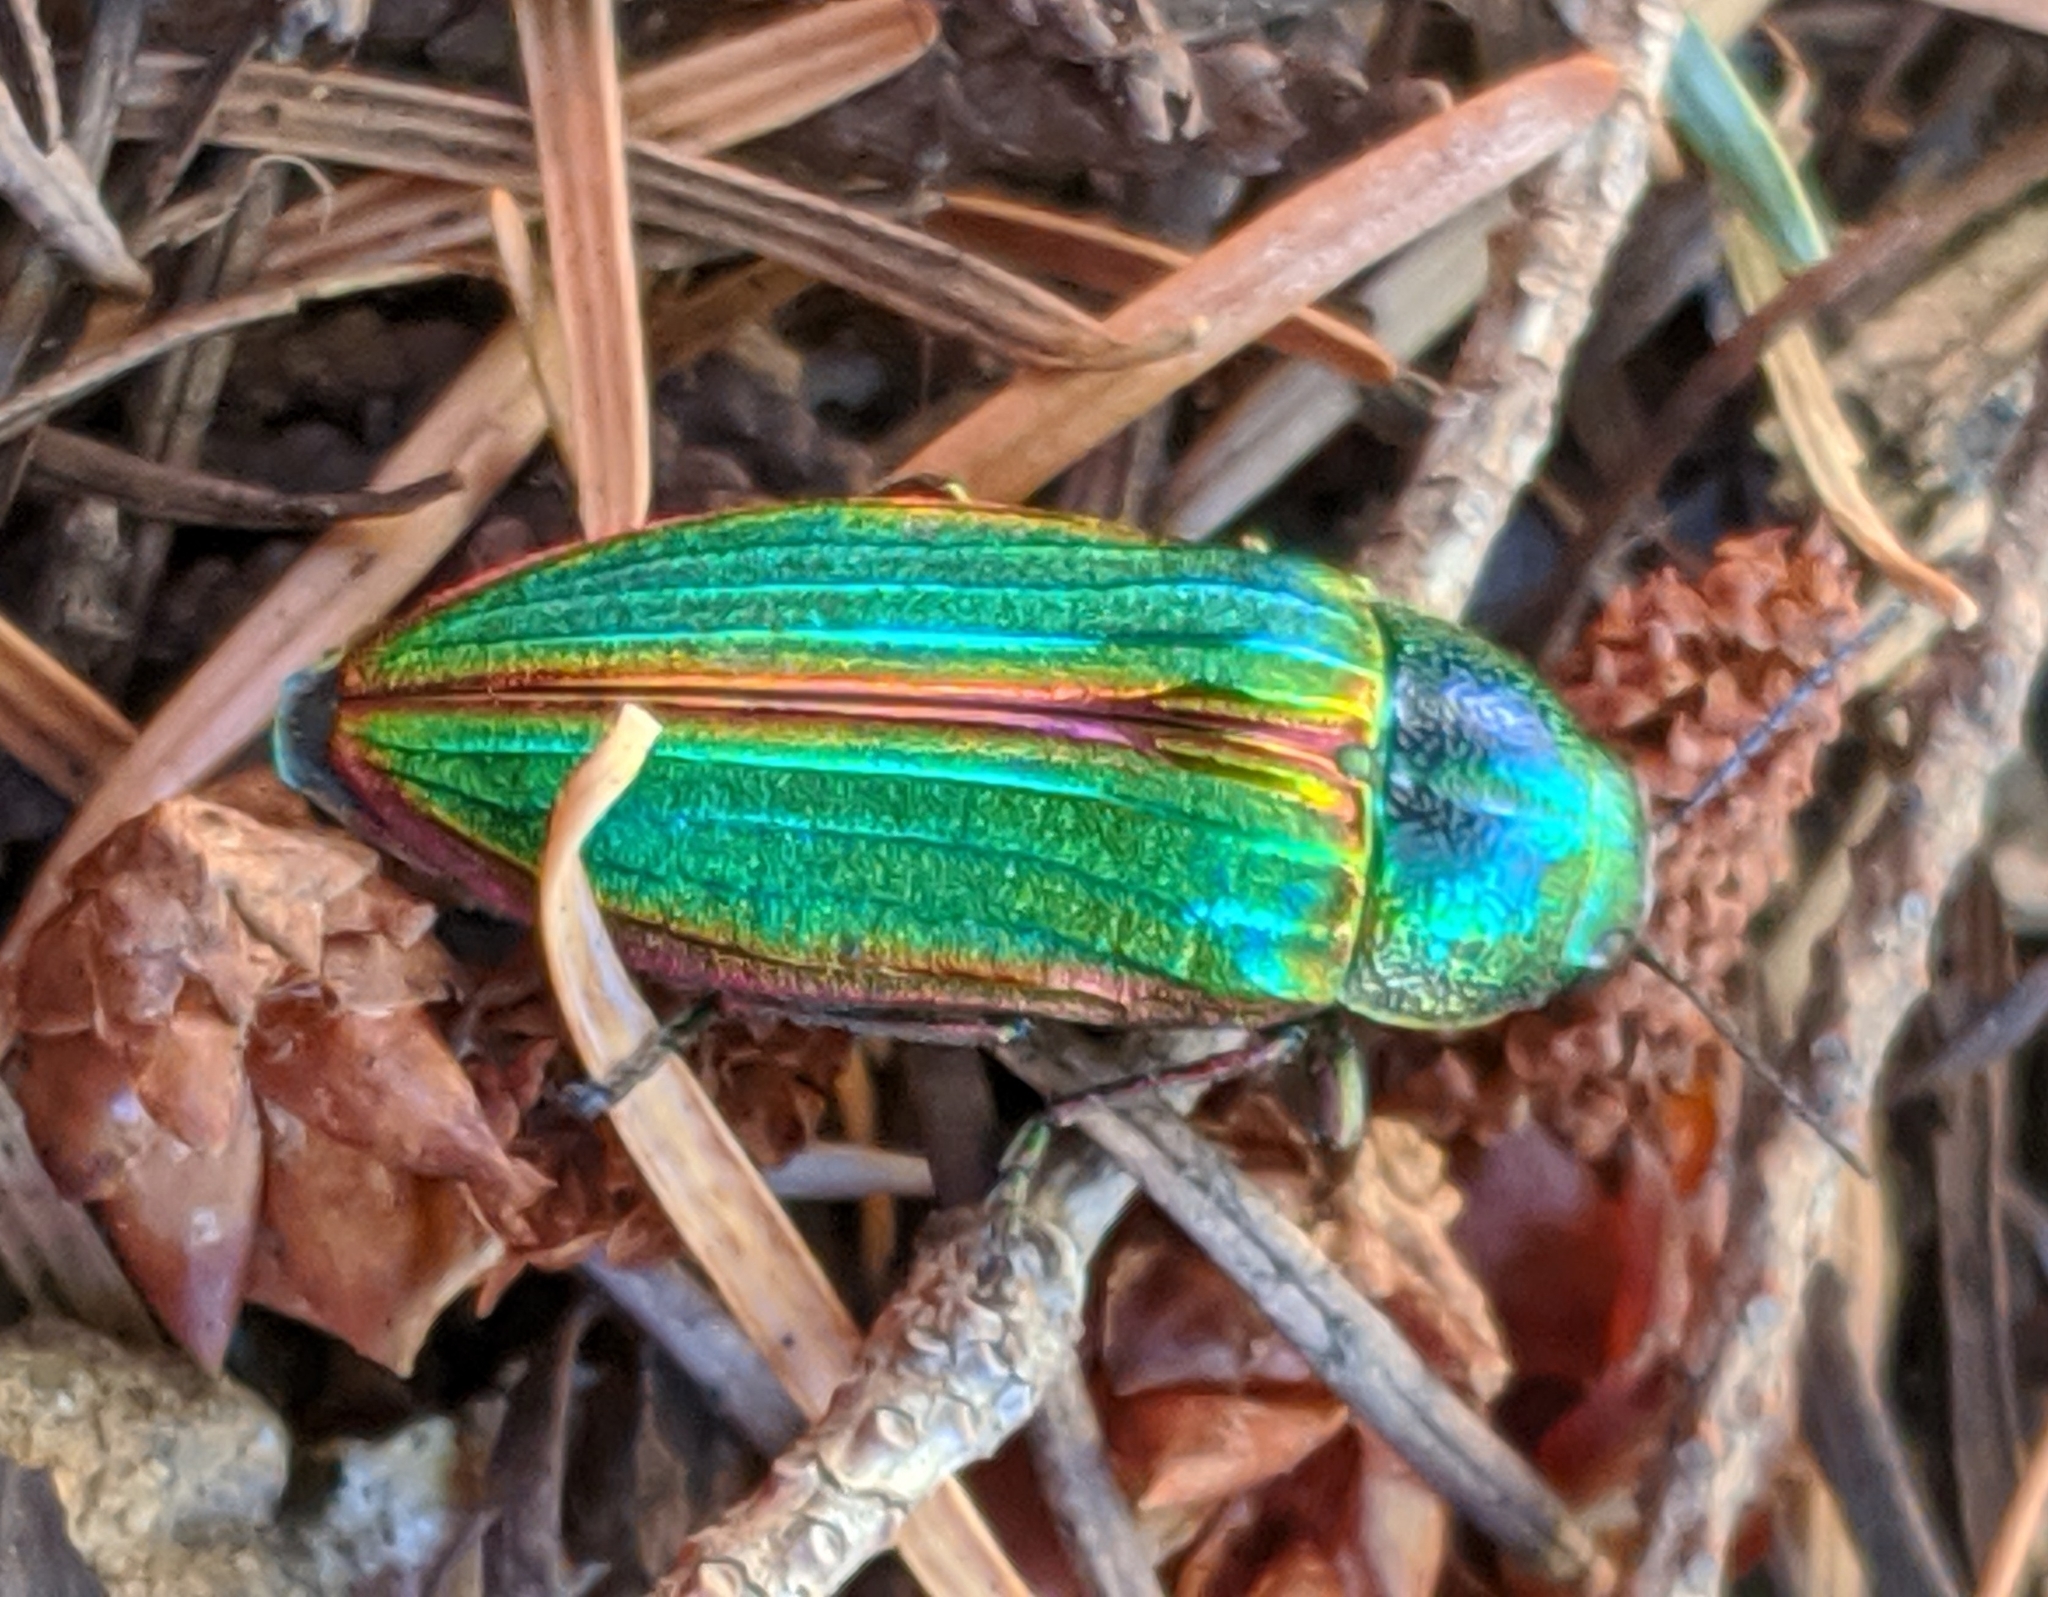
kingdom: Animalia
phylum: Arthropoda
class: Insecta
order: Coleoptera
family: Buprestidae
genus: Buprestis
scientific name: Buprestis aurulenta
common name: Golden buprestid
